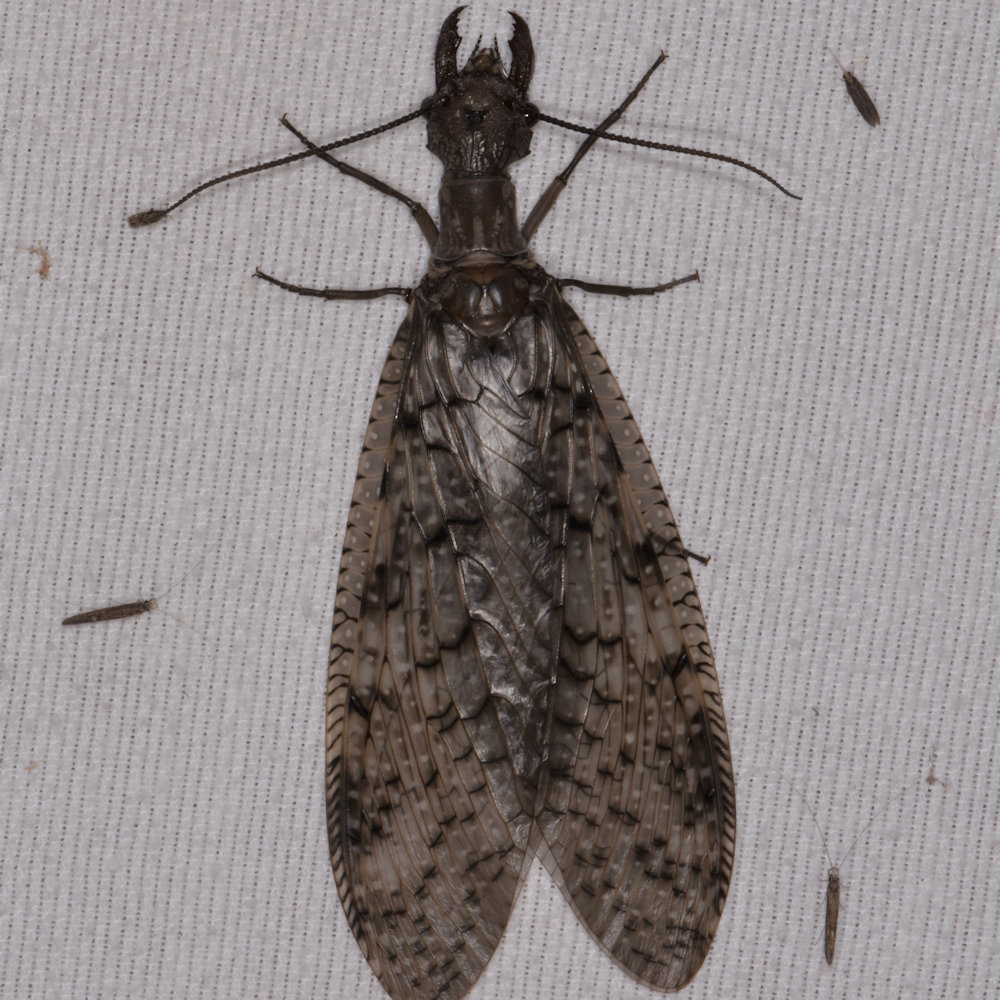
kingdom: Animalia
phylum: Arthropoda
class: Insecta
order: Megaloptera
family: Corydalidae
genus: Corydalus
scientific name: Corydalus cornutus
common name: Dobsonfly
